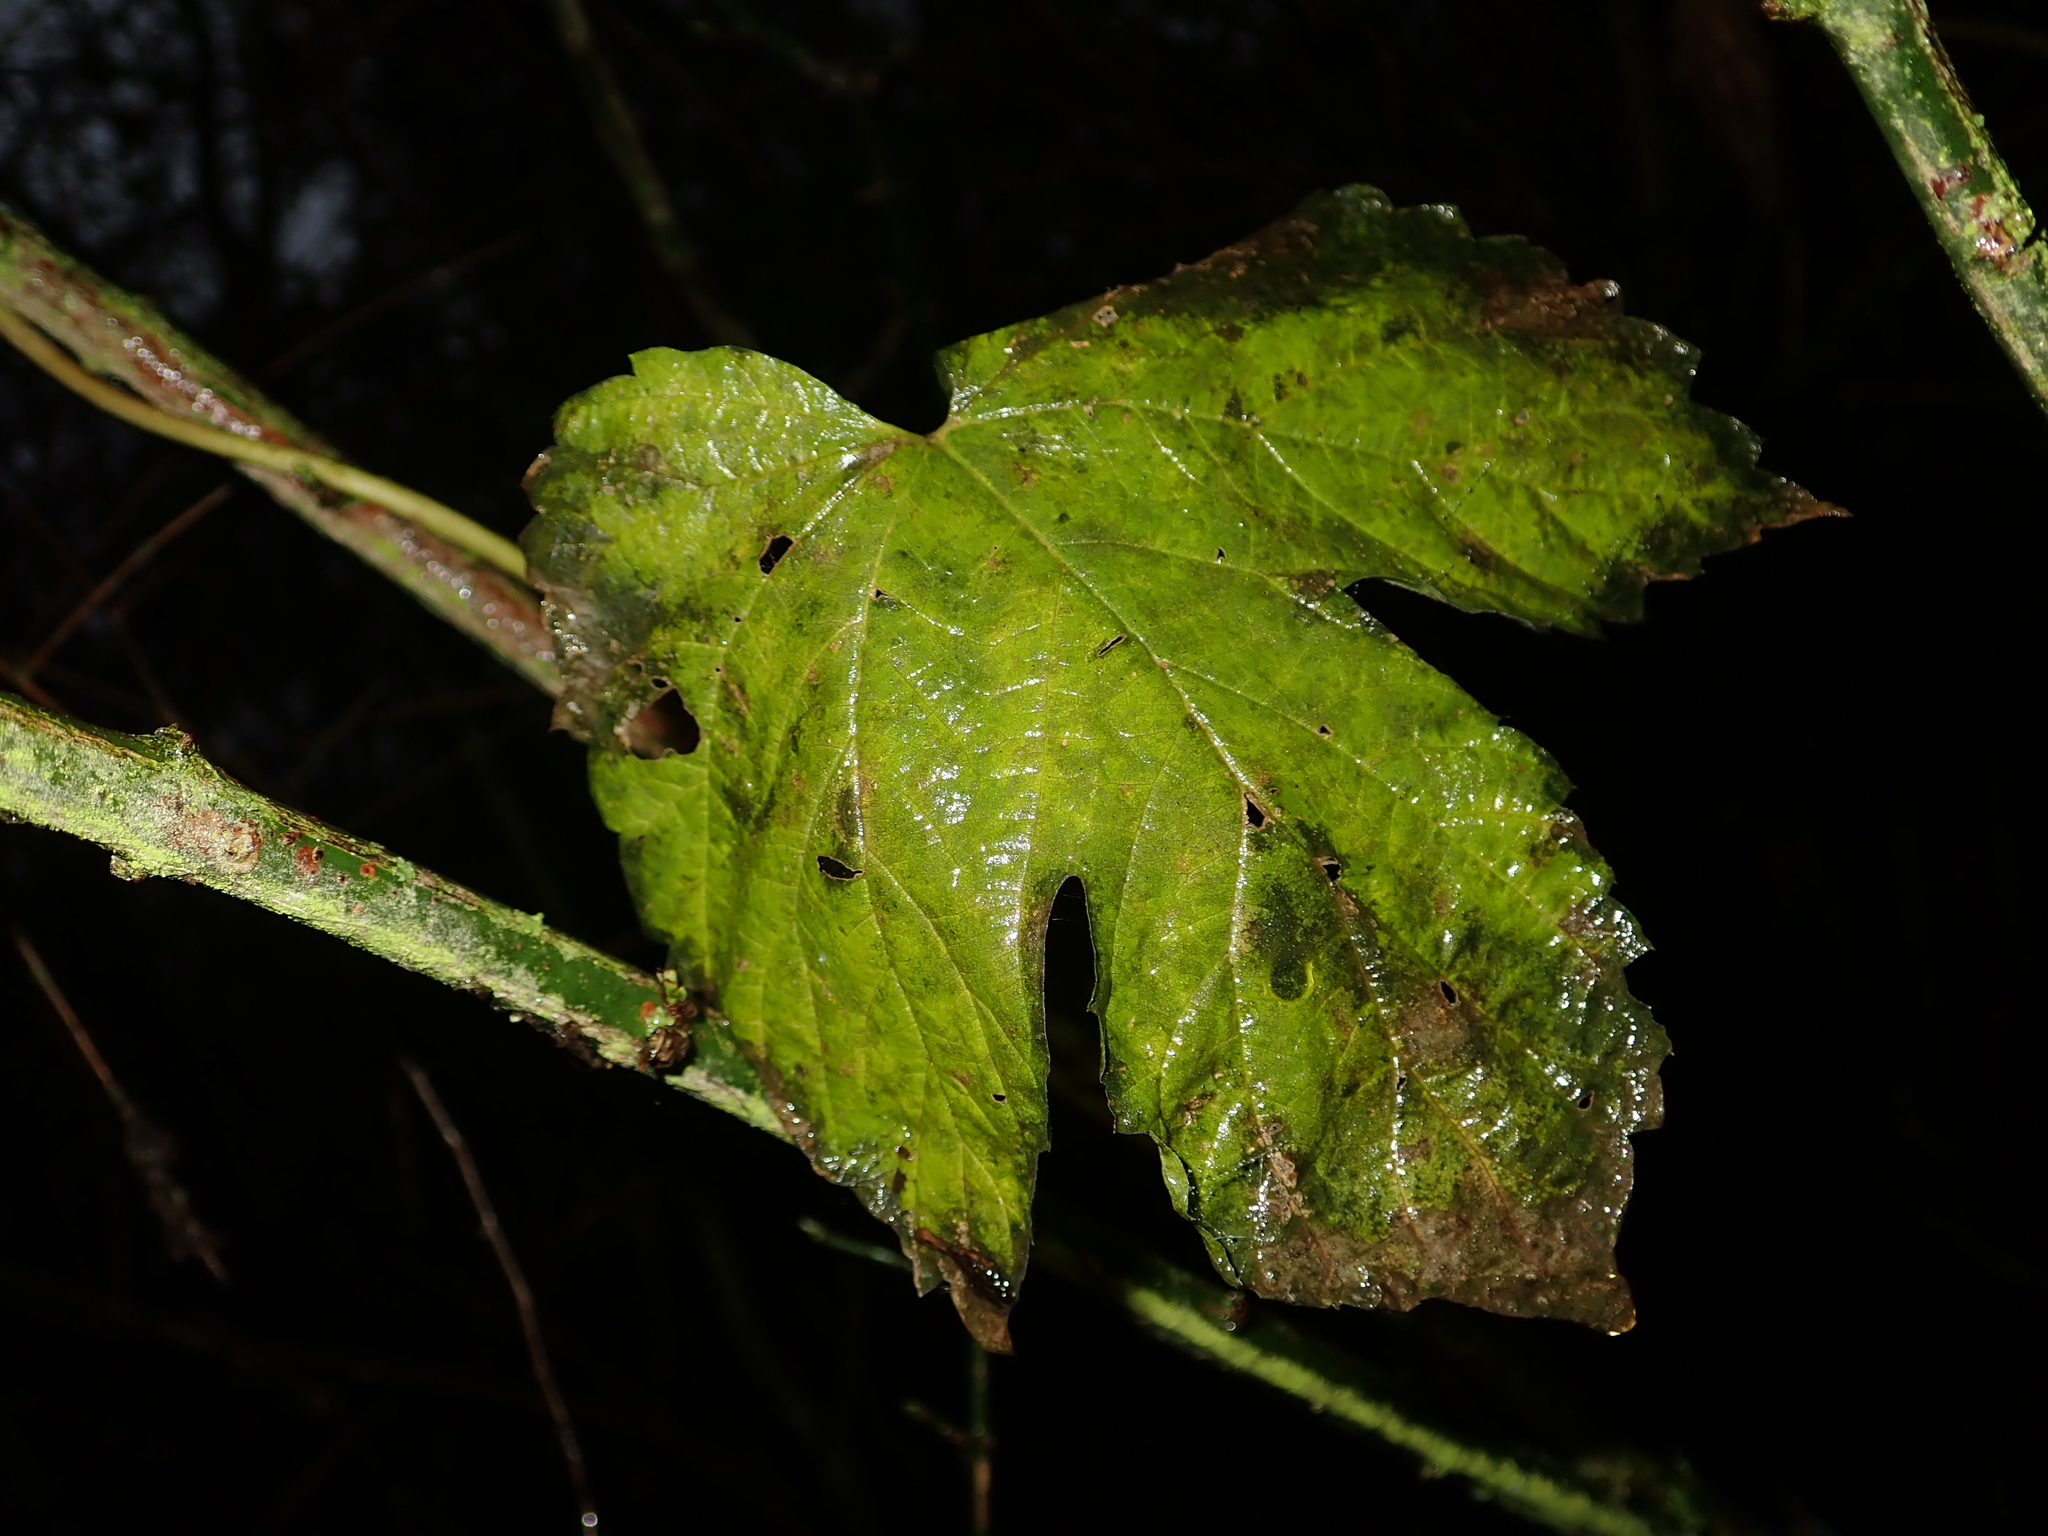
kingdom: Plantae
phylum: Tracheophyta
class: Magnoliopsida
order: Rosales
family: Cannabaceae
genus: Humulus
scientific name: Humulus lupulus
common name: Hop
